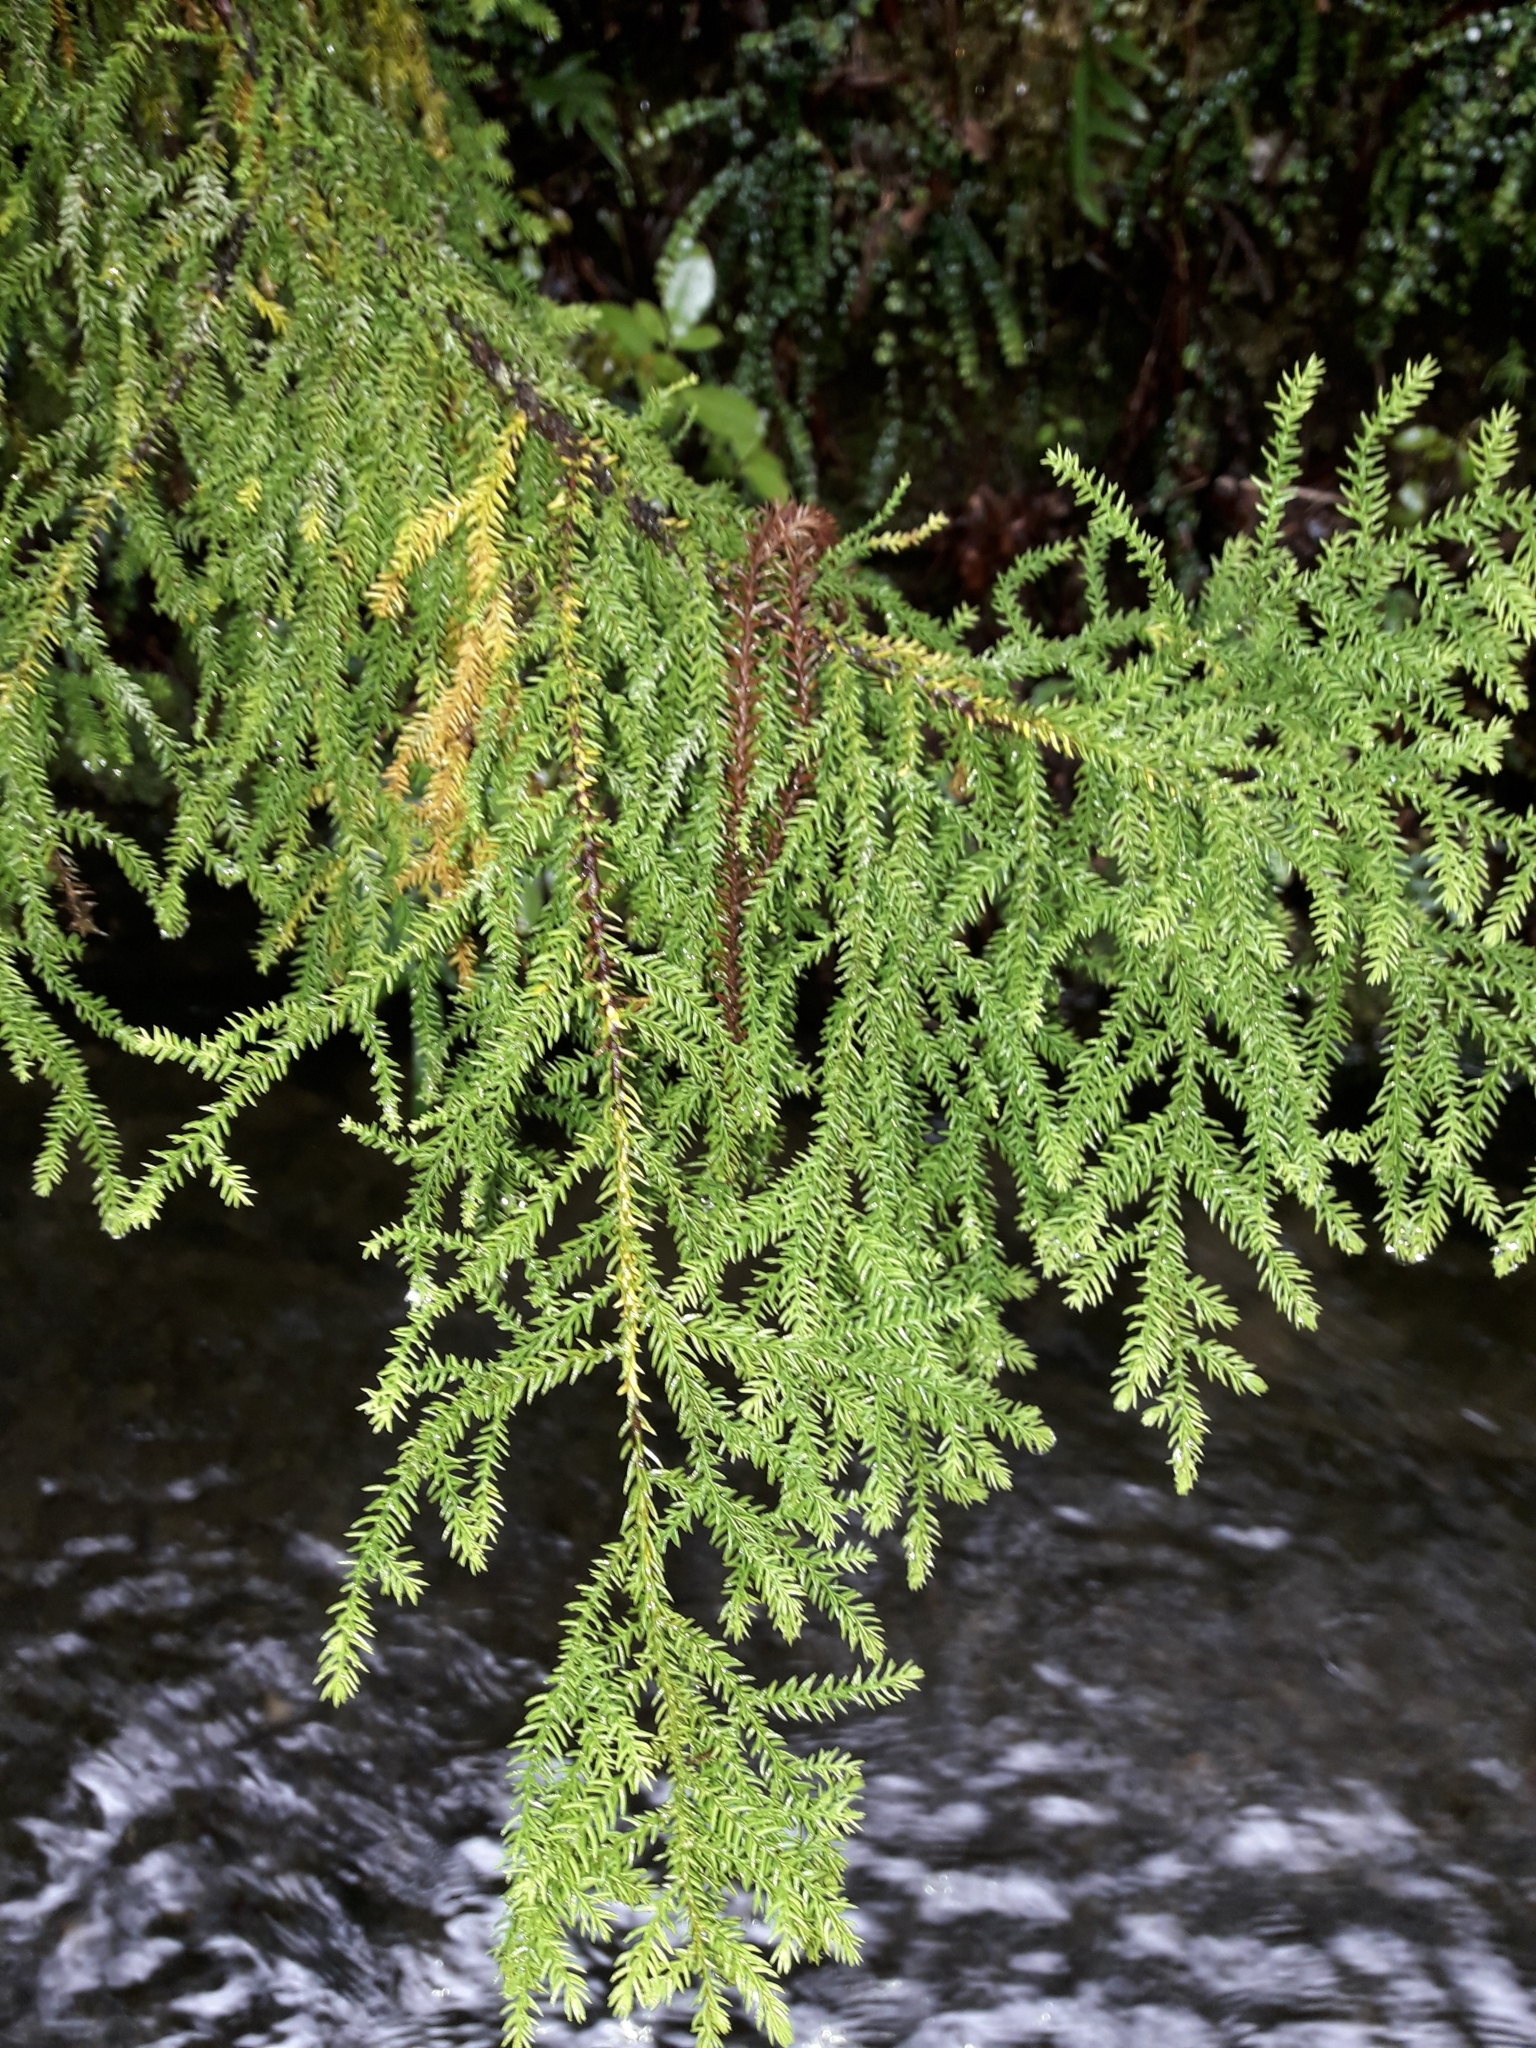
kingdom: Plantae
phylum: Tracheophyta
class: Pinopsida
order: Pinales
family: Podocarpaceae
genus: Lepidothamnus
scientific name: Lepidothamnus intermedius
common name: Yellow silver pine
